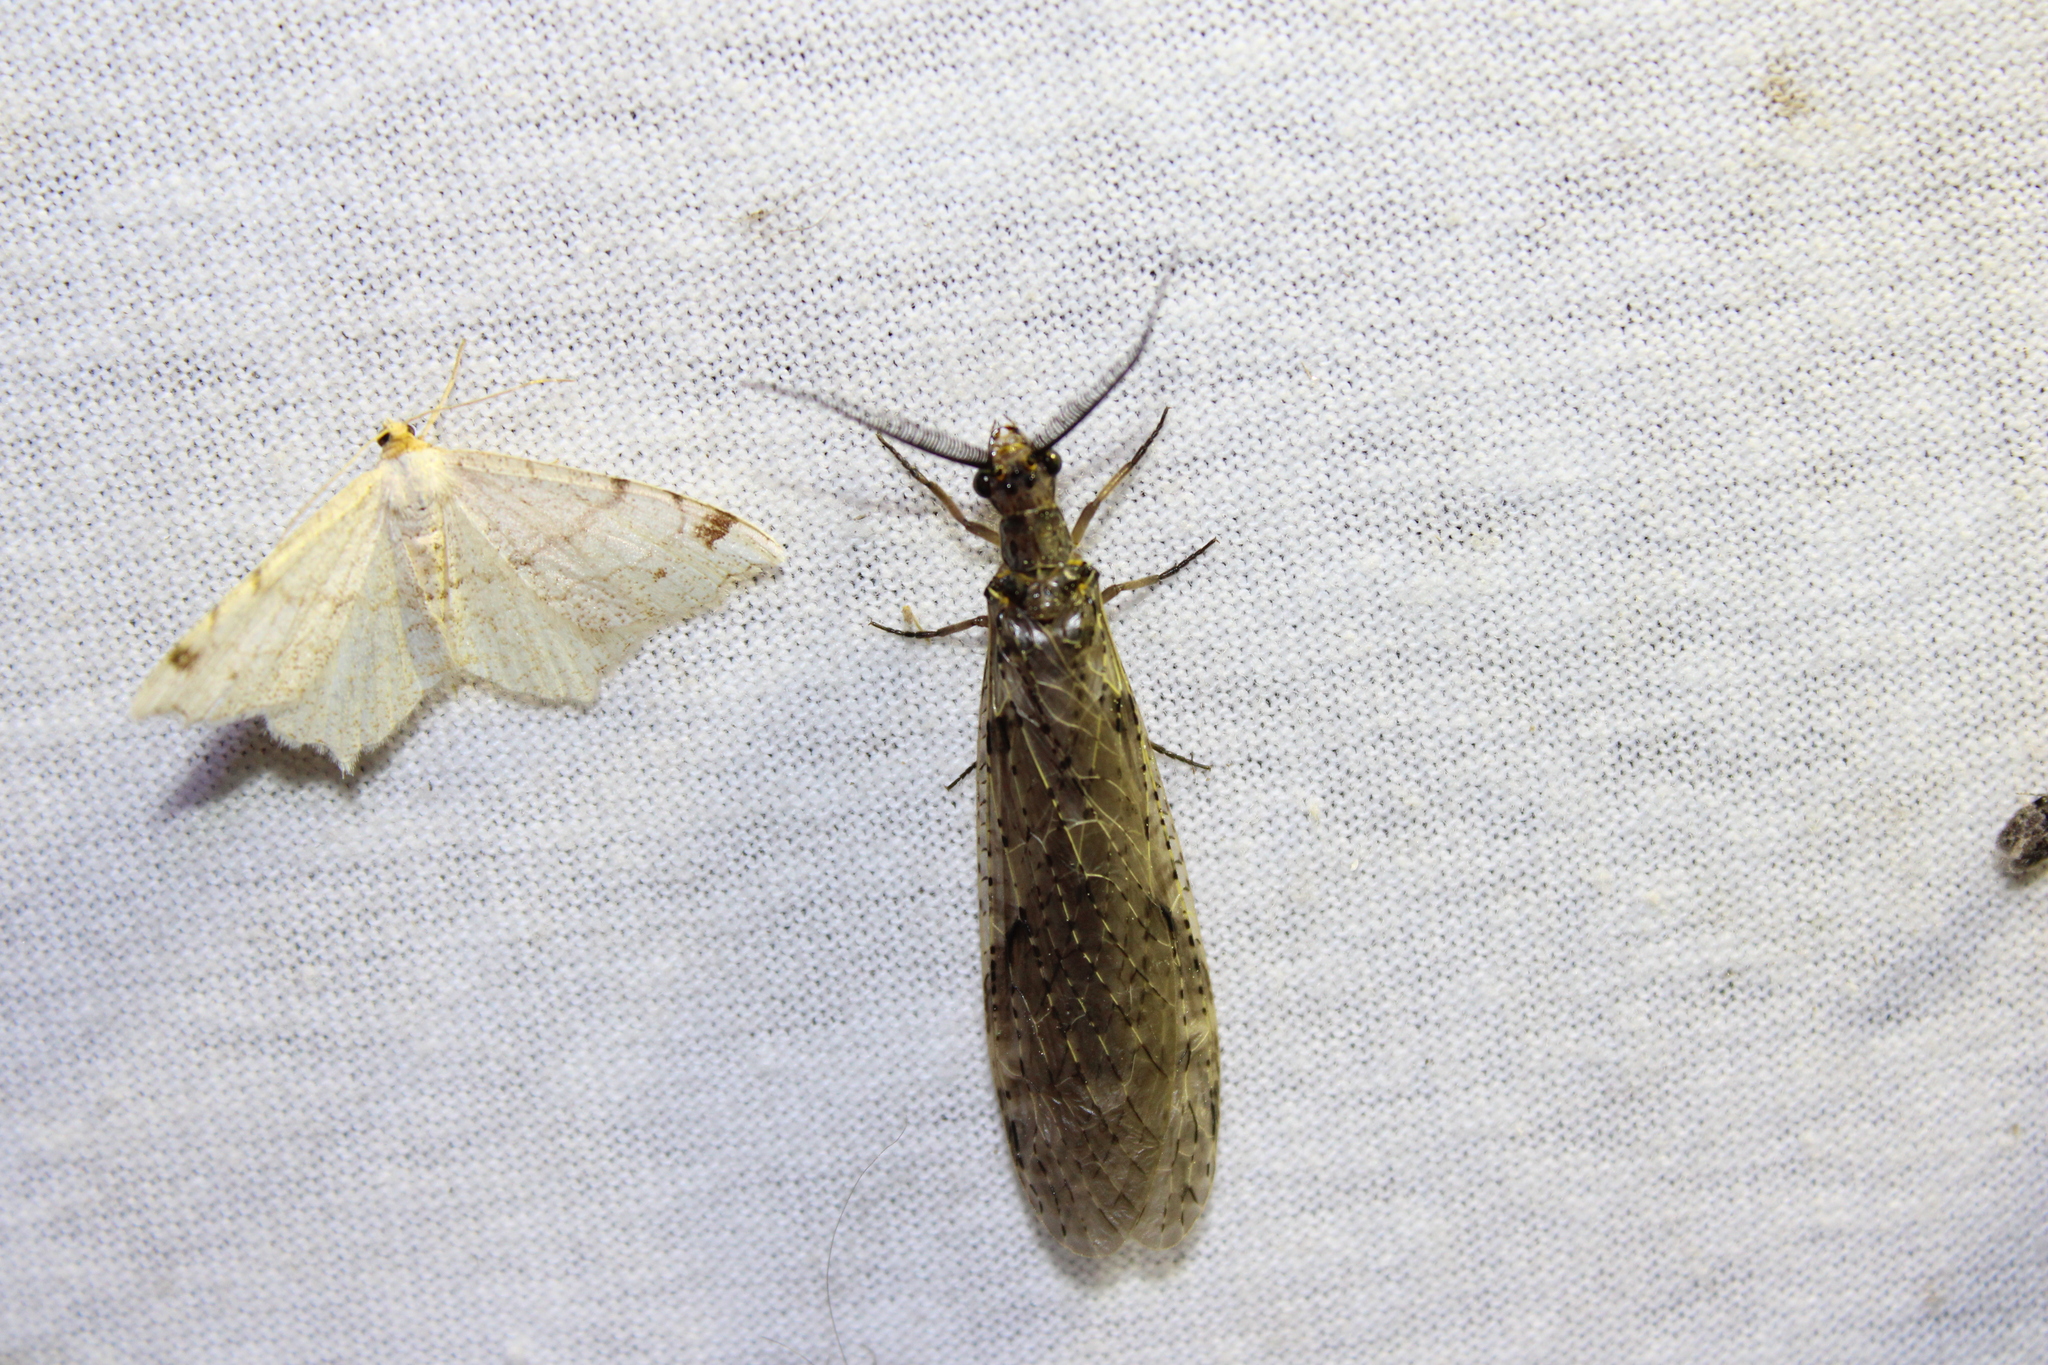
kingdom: Animalia
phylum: Arthropoda
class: Insecta
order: Megaloptera
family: Corydalidae
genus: Chauliodes
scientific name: Chauliodes rastricornis
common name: Spring fishfly
